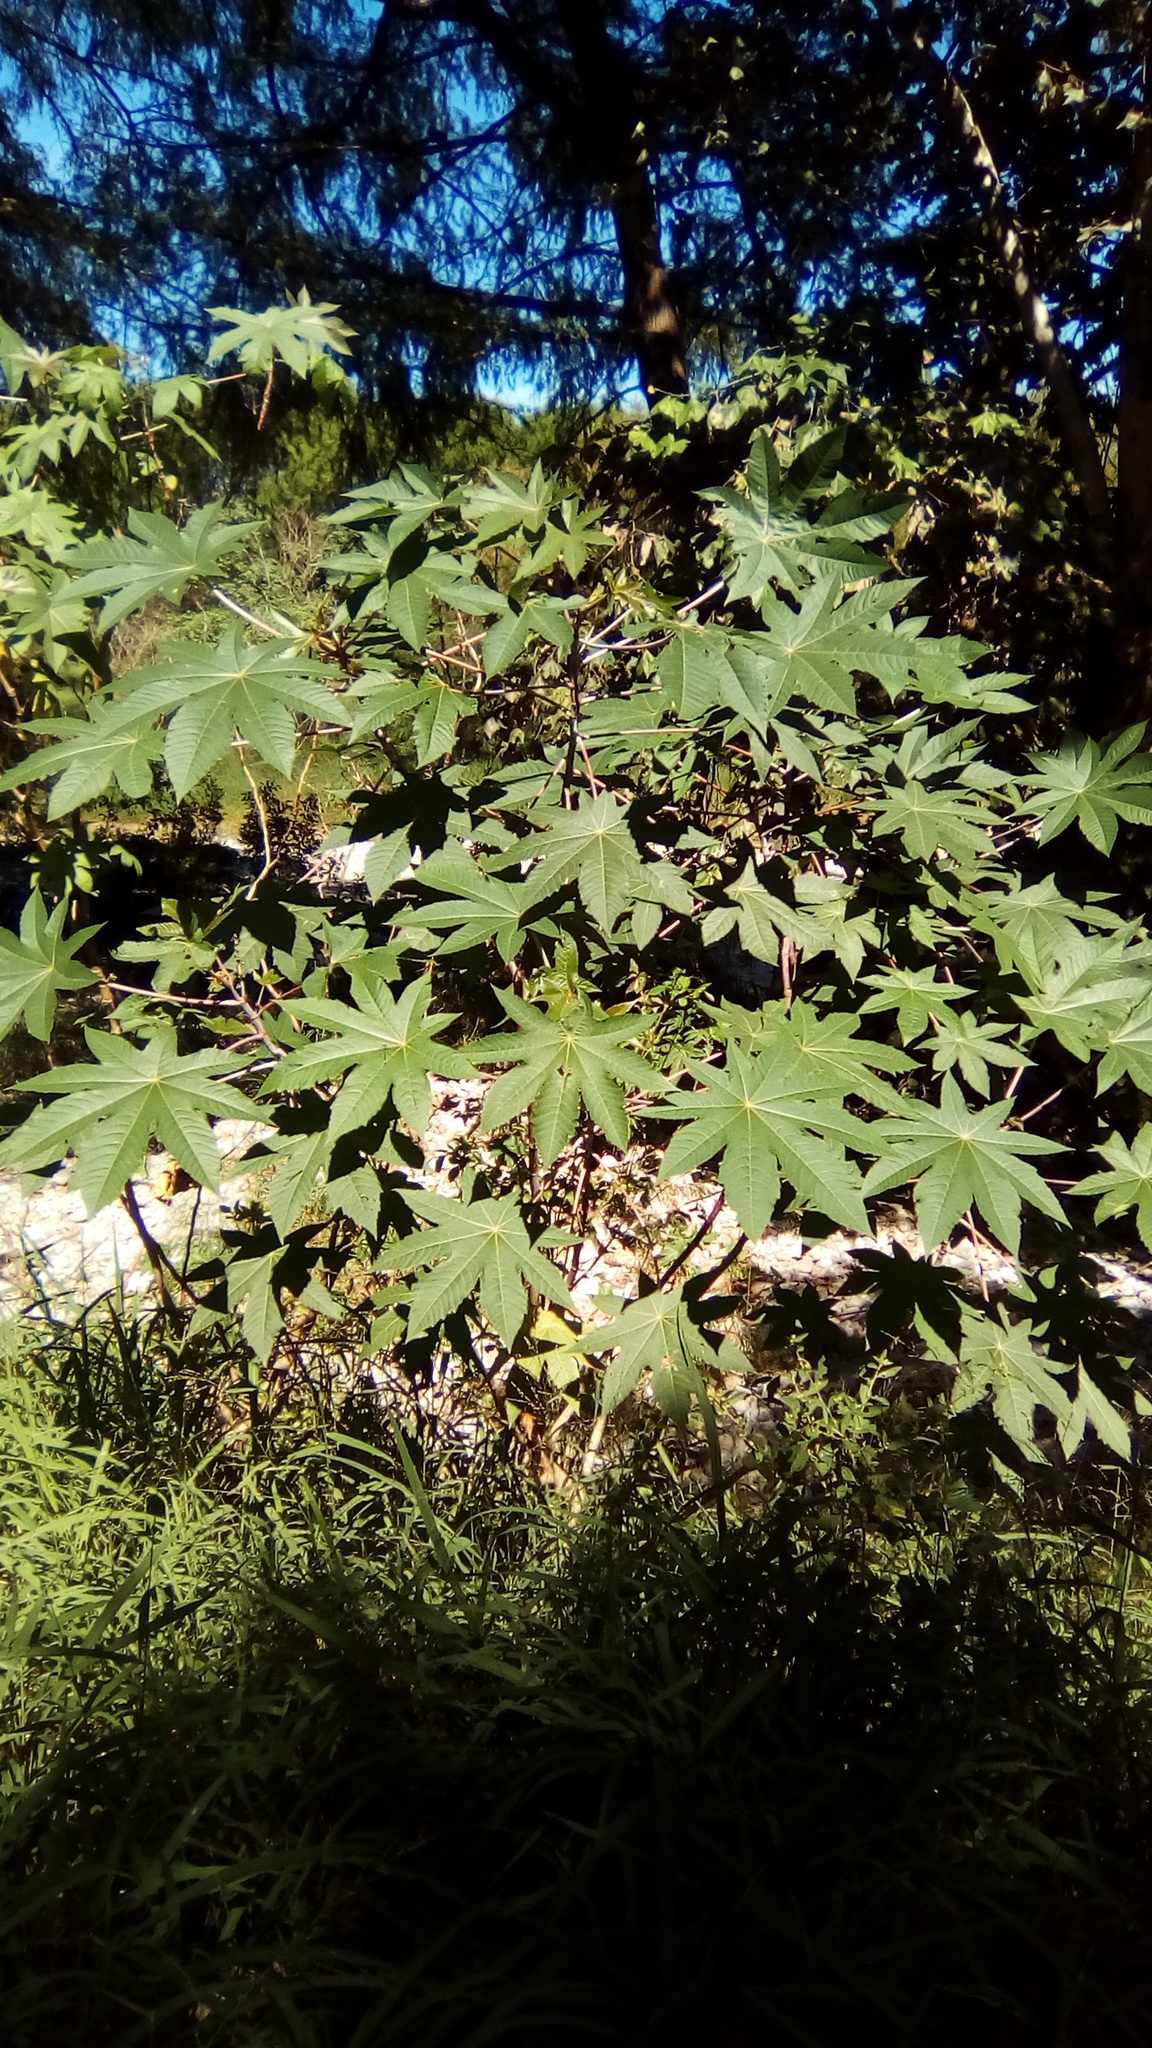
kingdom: Plantae
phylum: Tracheophyta
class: Magnoliopsida
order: Malpighiales
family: Euphorbiaceae
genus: Ricinus
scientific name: Ricinus communis
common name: Castor-oil-plant
